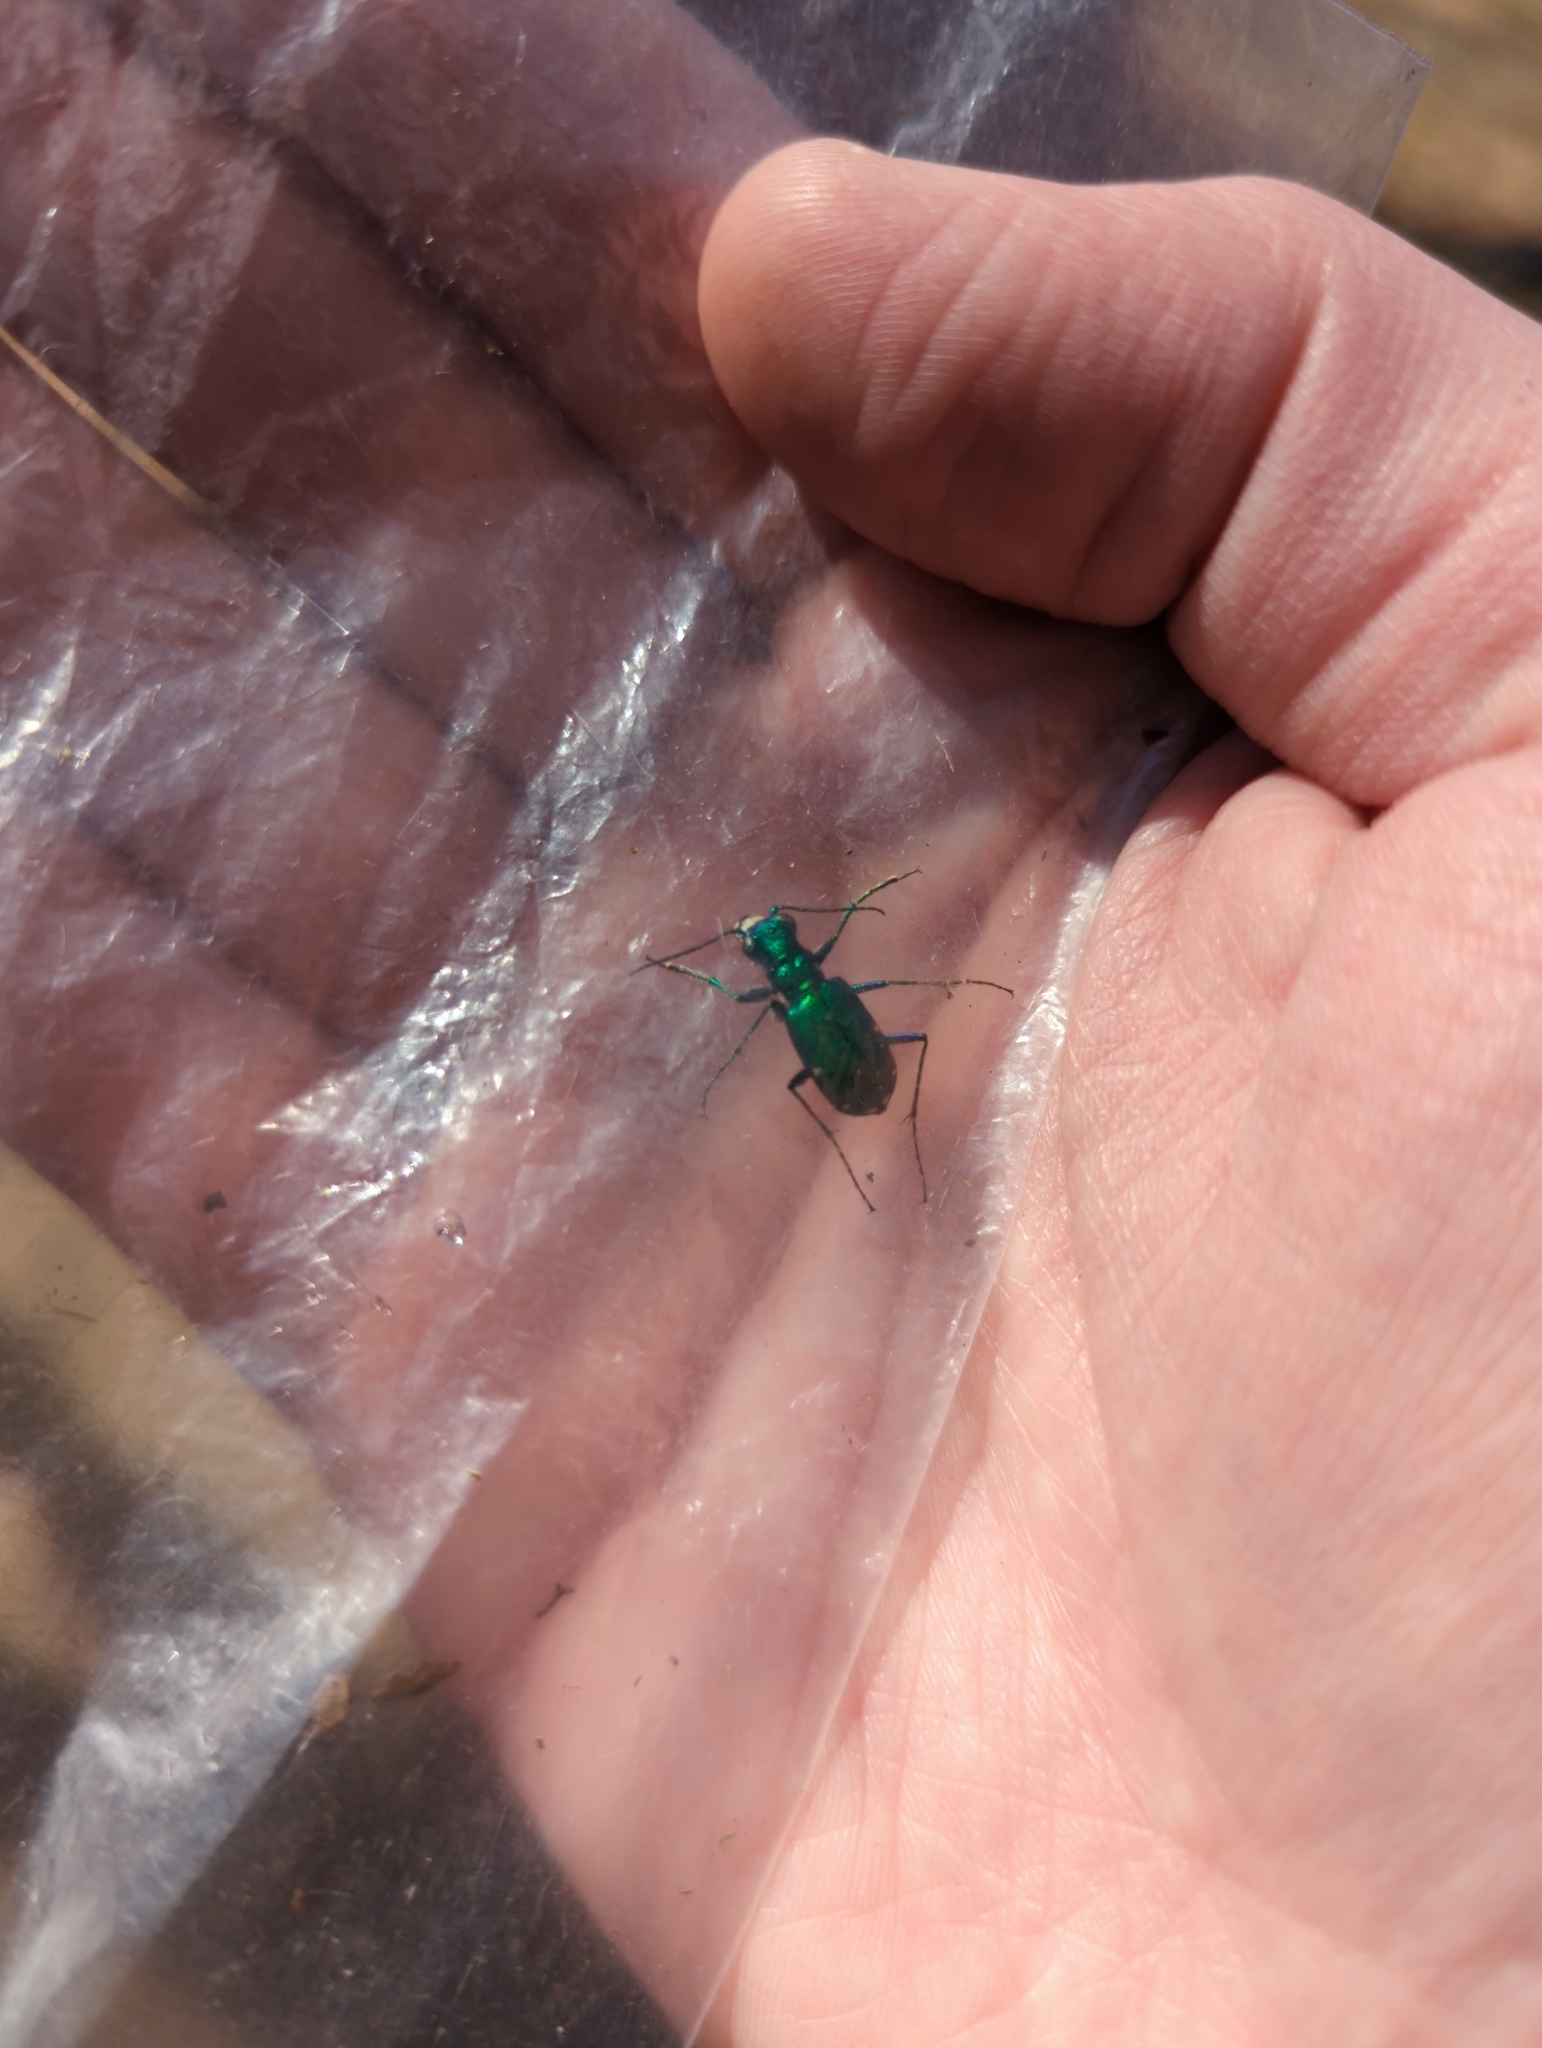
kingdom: Animalia
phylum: Arthropoda
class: Insecta
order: Coleoptera
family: Carabidae
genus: Cicindela
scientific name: Cicindela sexguttata
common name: Six-spotted tiger beetle
